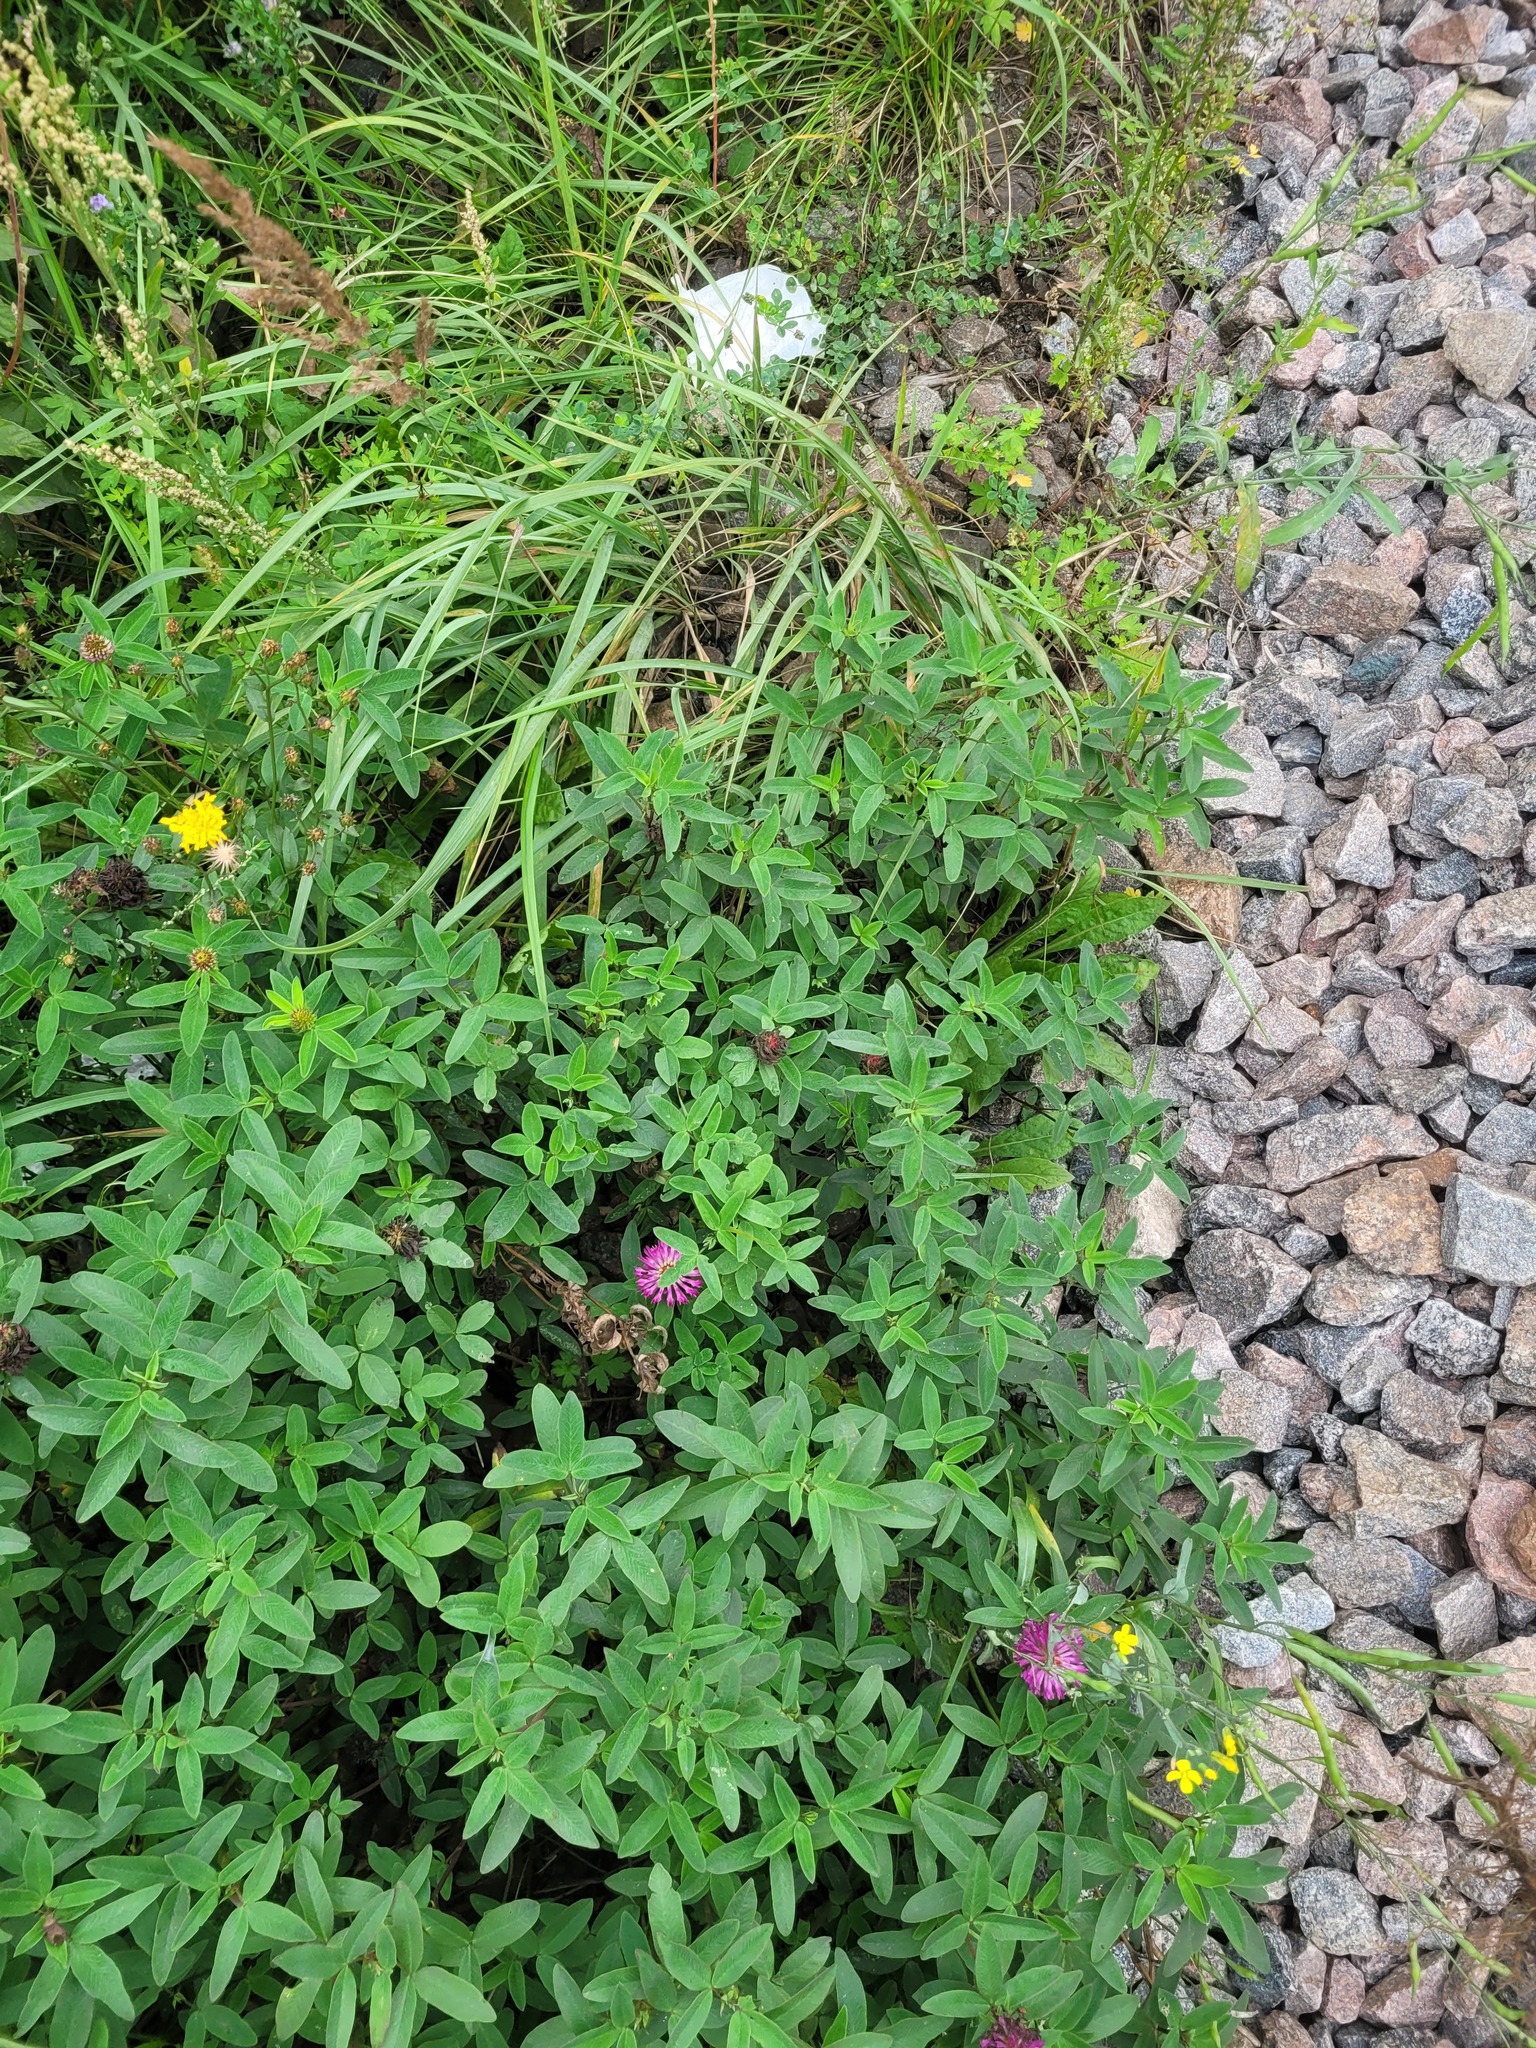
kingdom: Plantae
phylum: Tracheophyta
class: Magnoliopsida
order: Fabales
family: Fabaceae
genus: Trifolium
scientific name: Trifolium medium
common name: Zigzag clover
